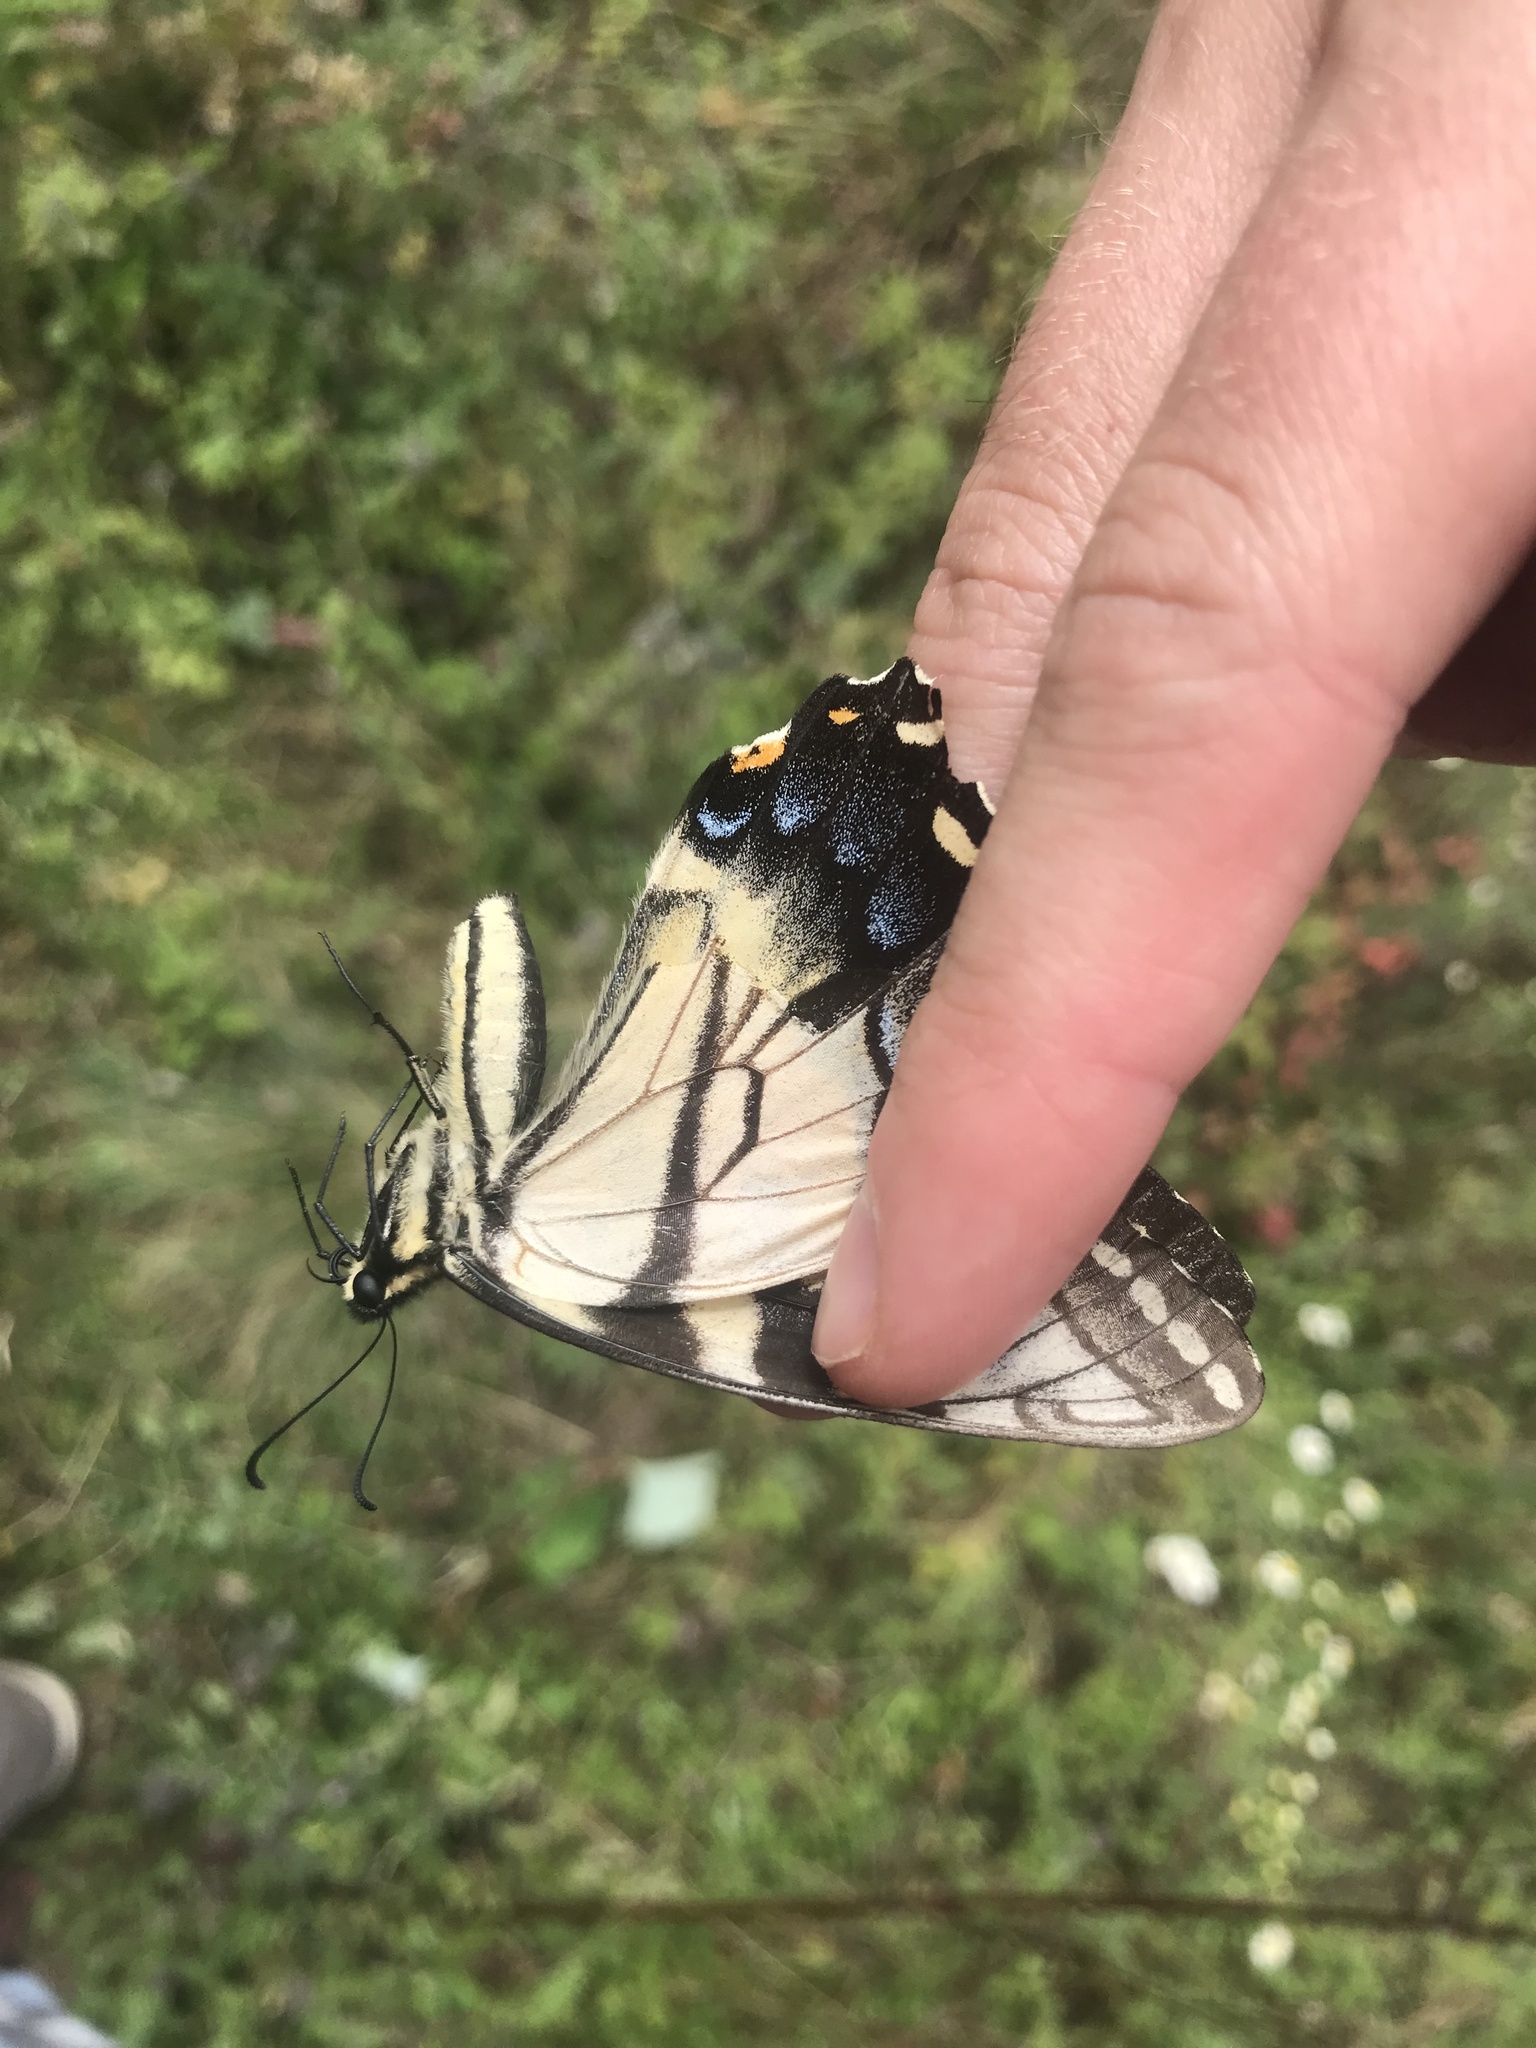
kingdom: Animalia
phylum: Arthropoda
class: Insecta
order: Lepidoptera
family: Papilionidae
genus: Papilio
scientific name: Papilio glaucus
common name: Tiger swallowtail
